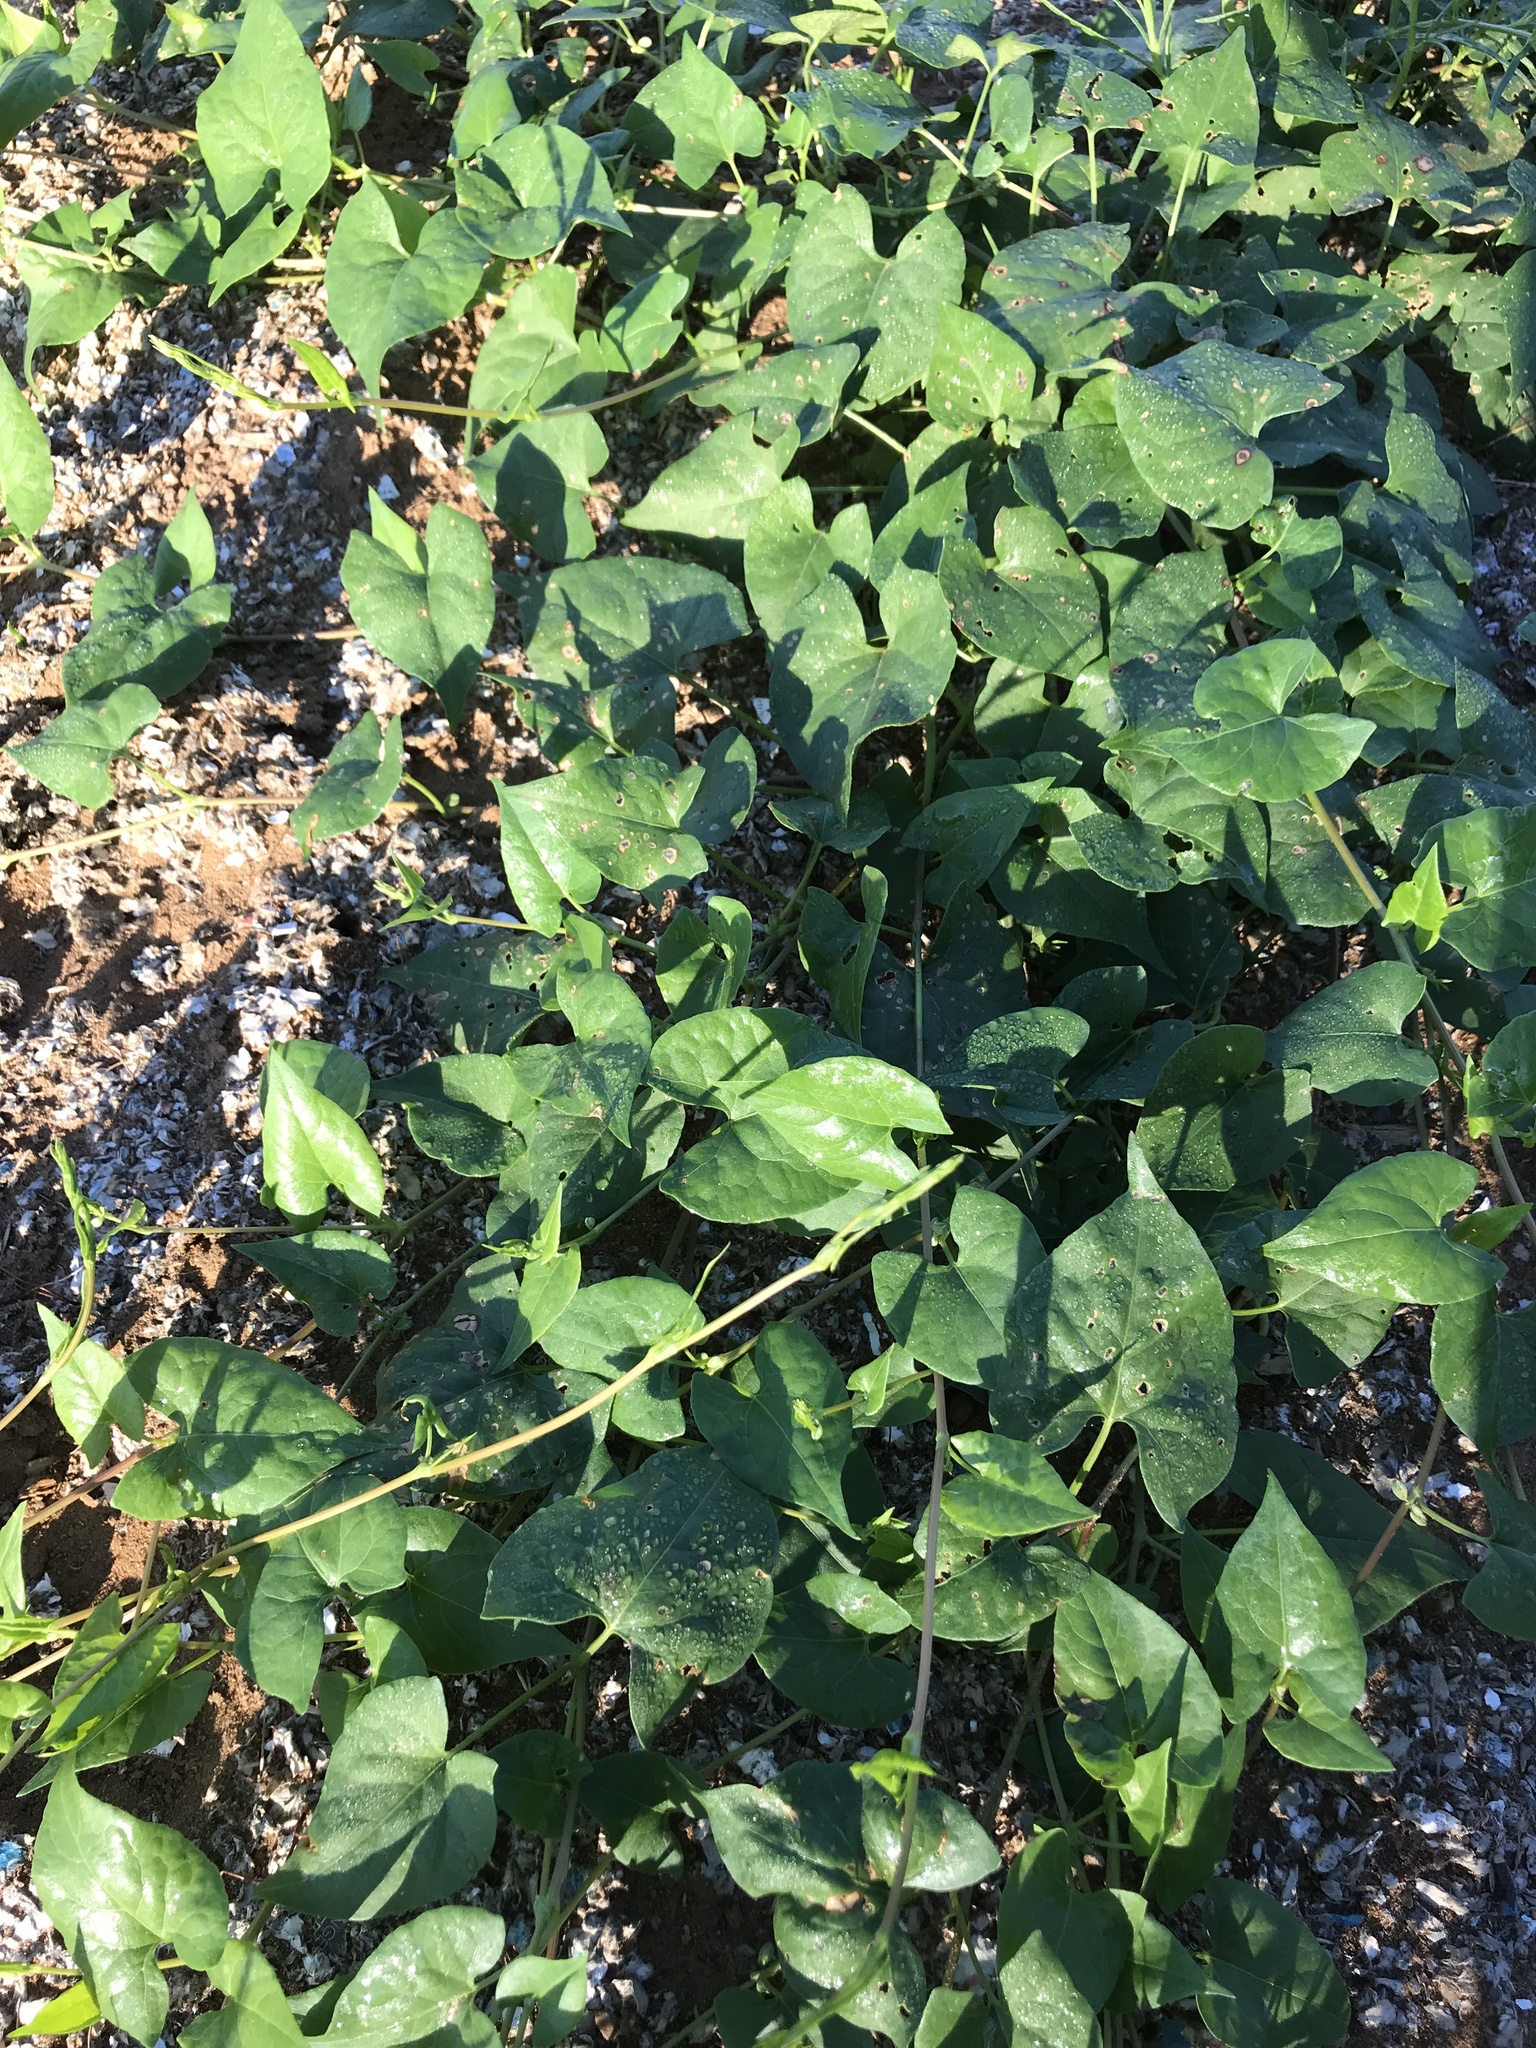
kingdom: Plantae
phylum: Tracheophyta
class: Magnoliopsida
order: Caryophyllales
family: Polygonaceae
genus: Fallopia
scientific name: Fallopia convolvulus
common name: Black bindweed
